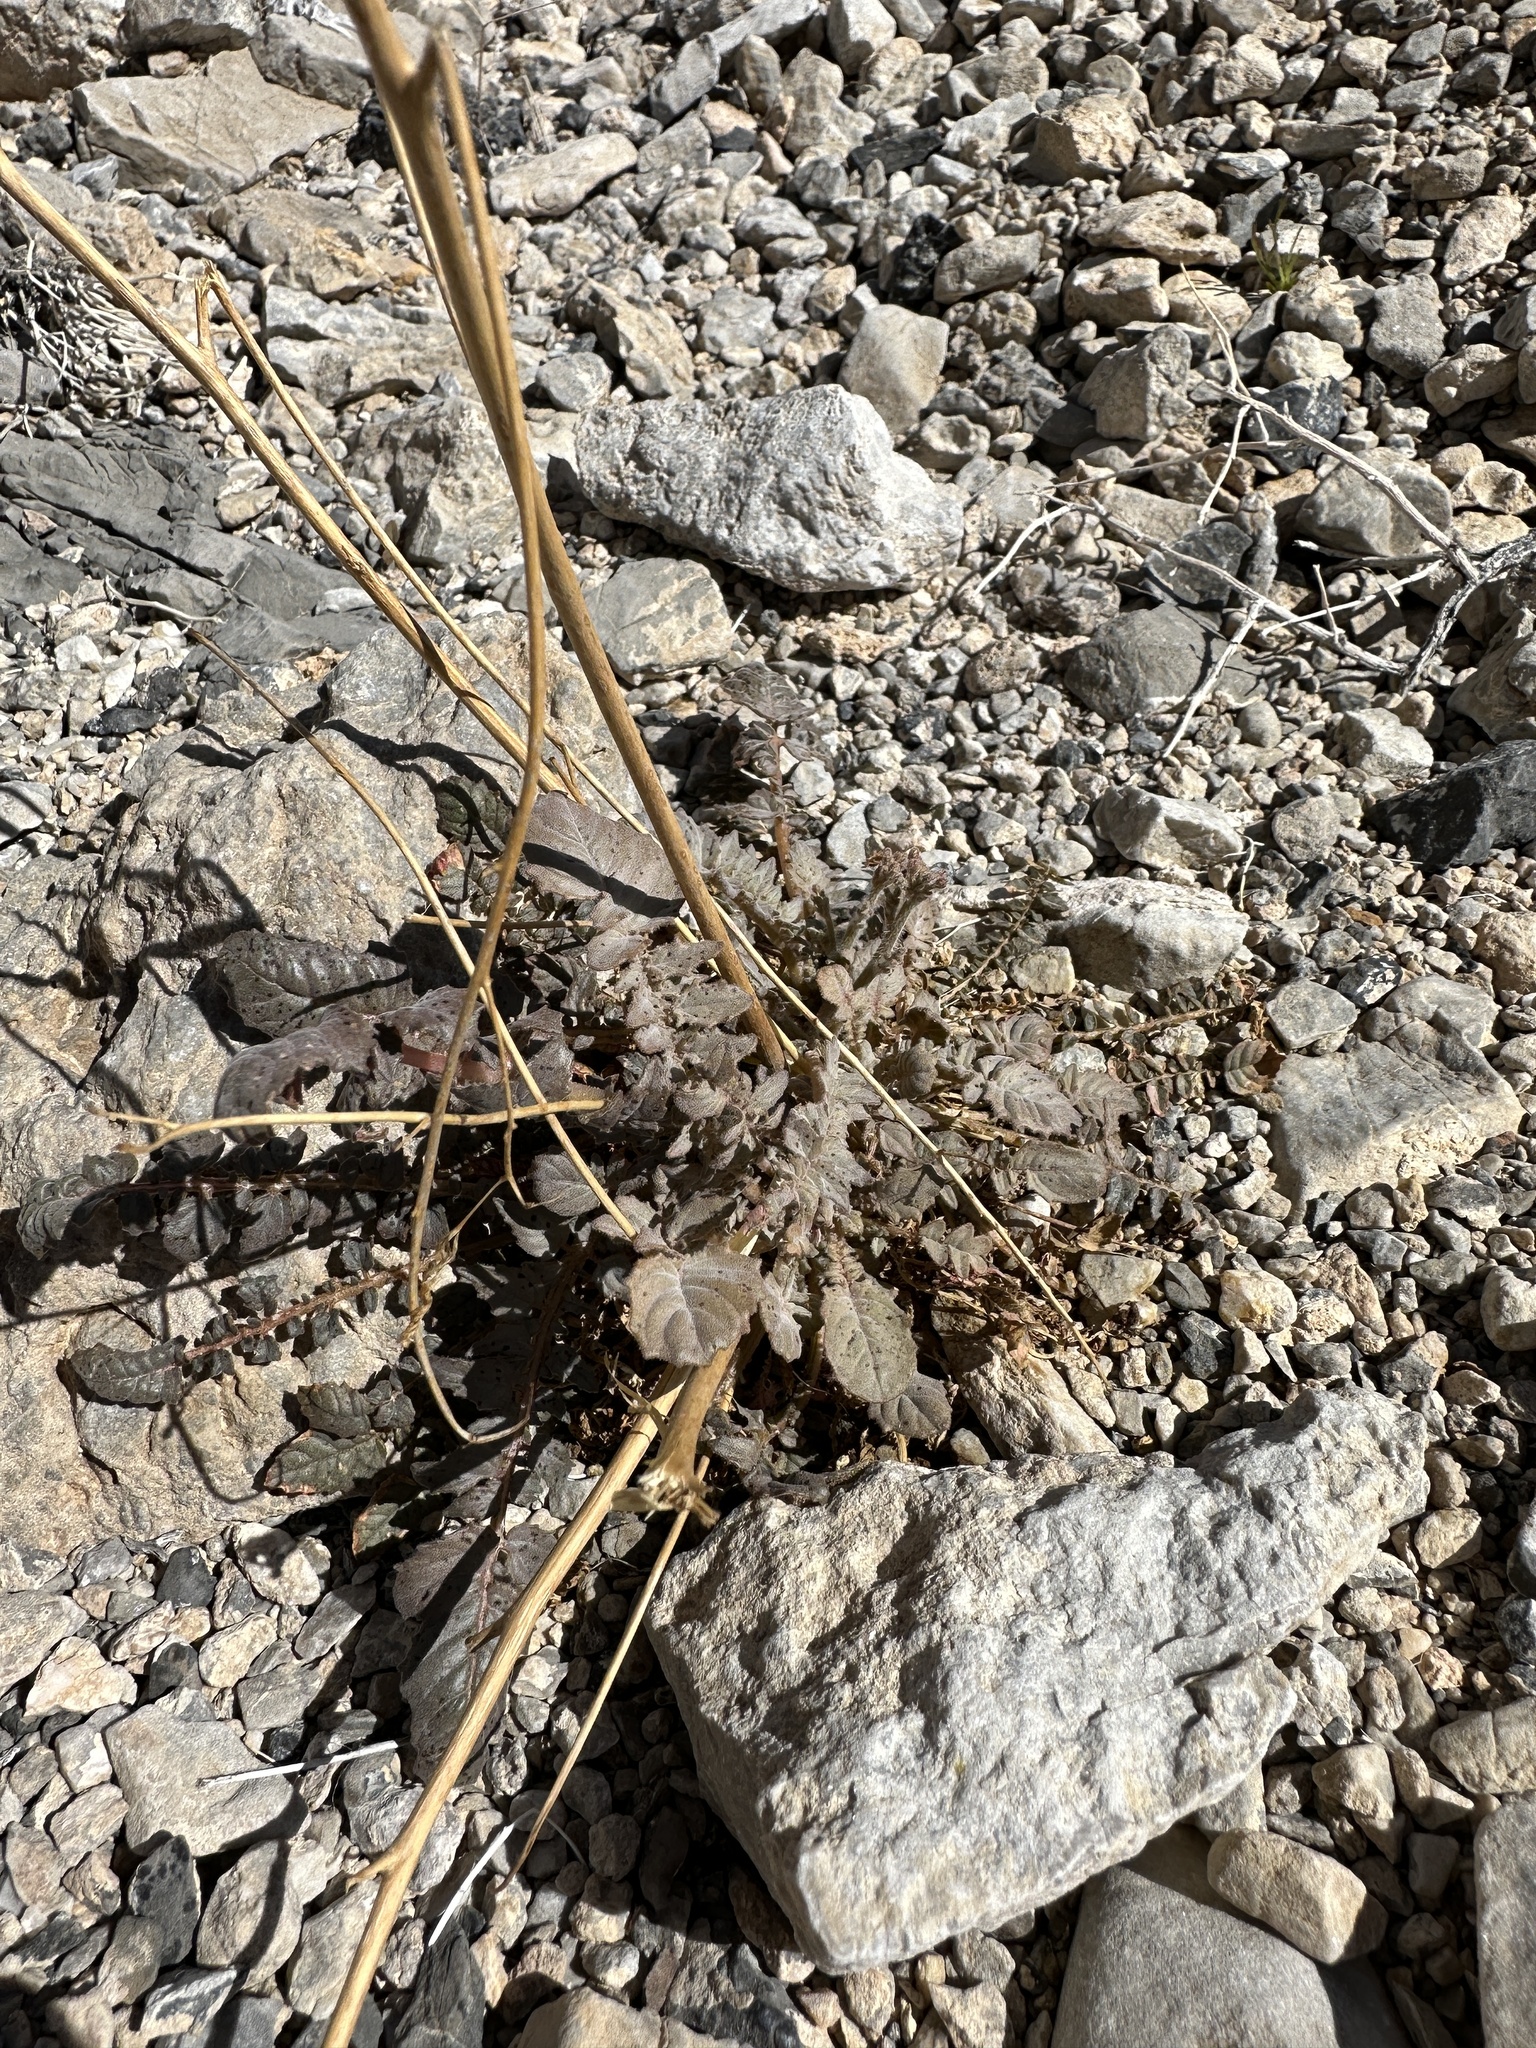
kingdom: Plantae
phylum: Tracheophyta
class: Magnoliopsida
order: Myrtales
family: Onagraceae
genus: Chylismia
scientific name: Chylismia walkeri
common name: Walker's suncup
